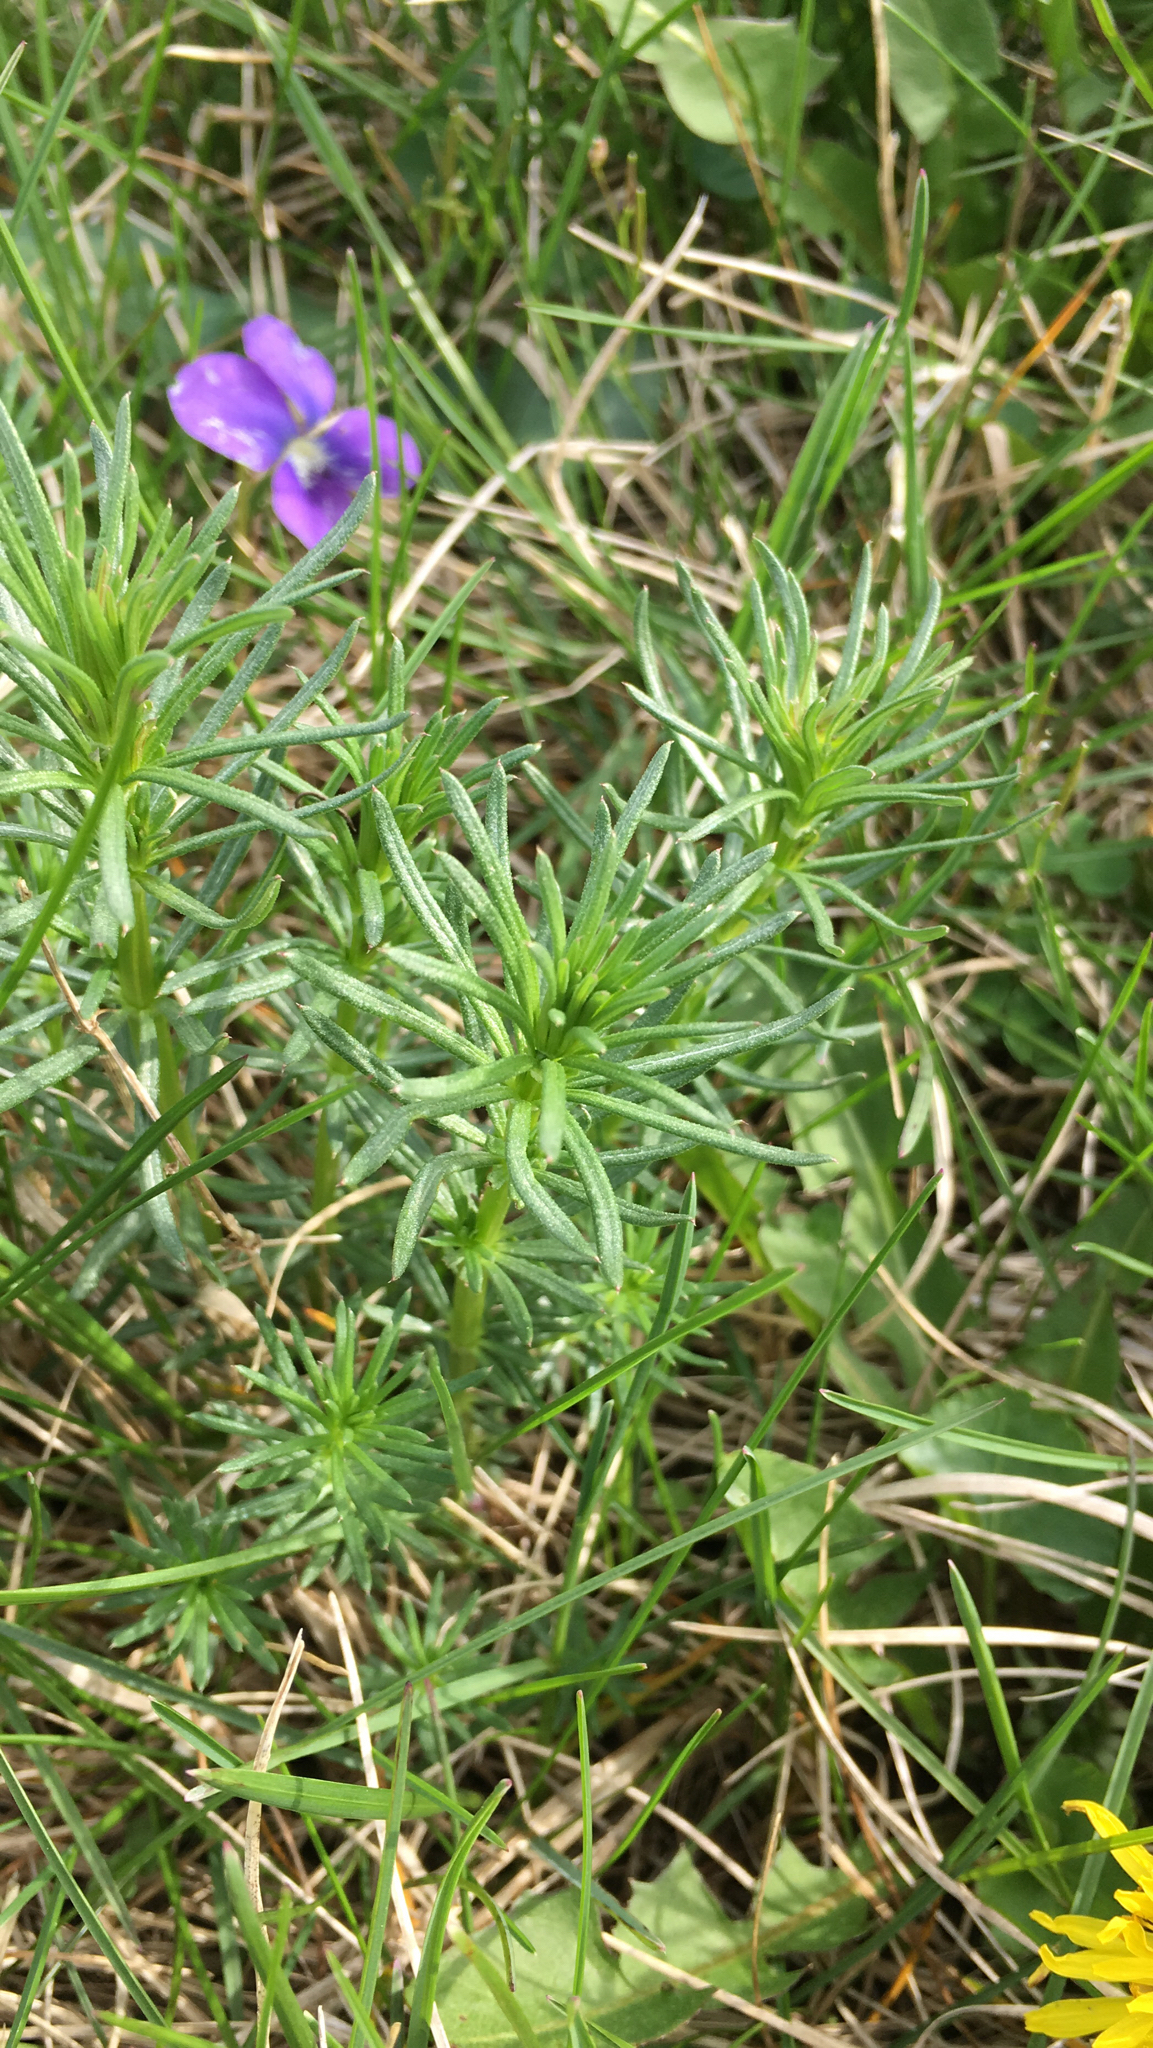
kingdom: Plantae
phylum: Tracheophyta
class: Magnoliopsida
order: Gentianales
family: Rubiaceae
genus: Galium
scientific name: Galium verum
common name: Lady's bedstraw
